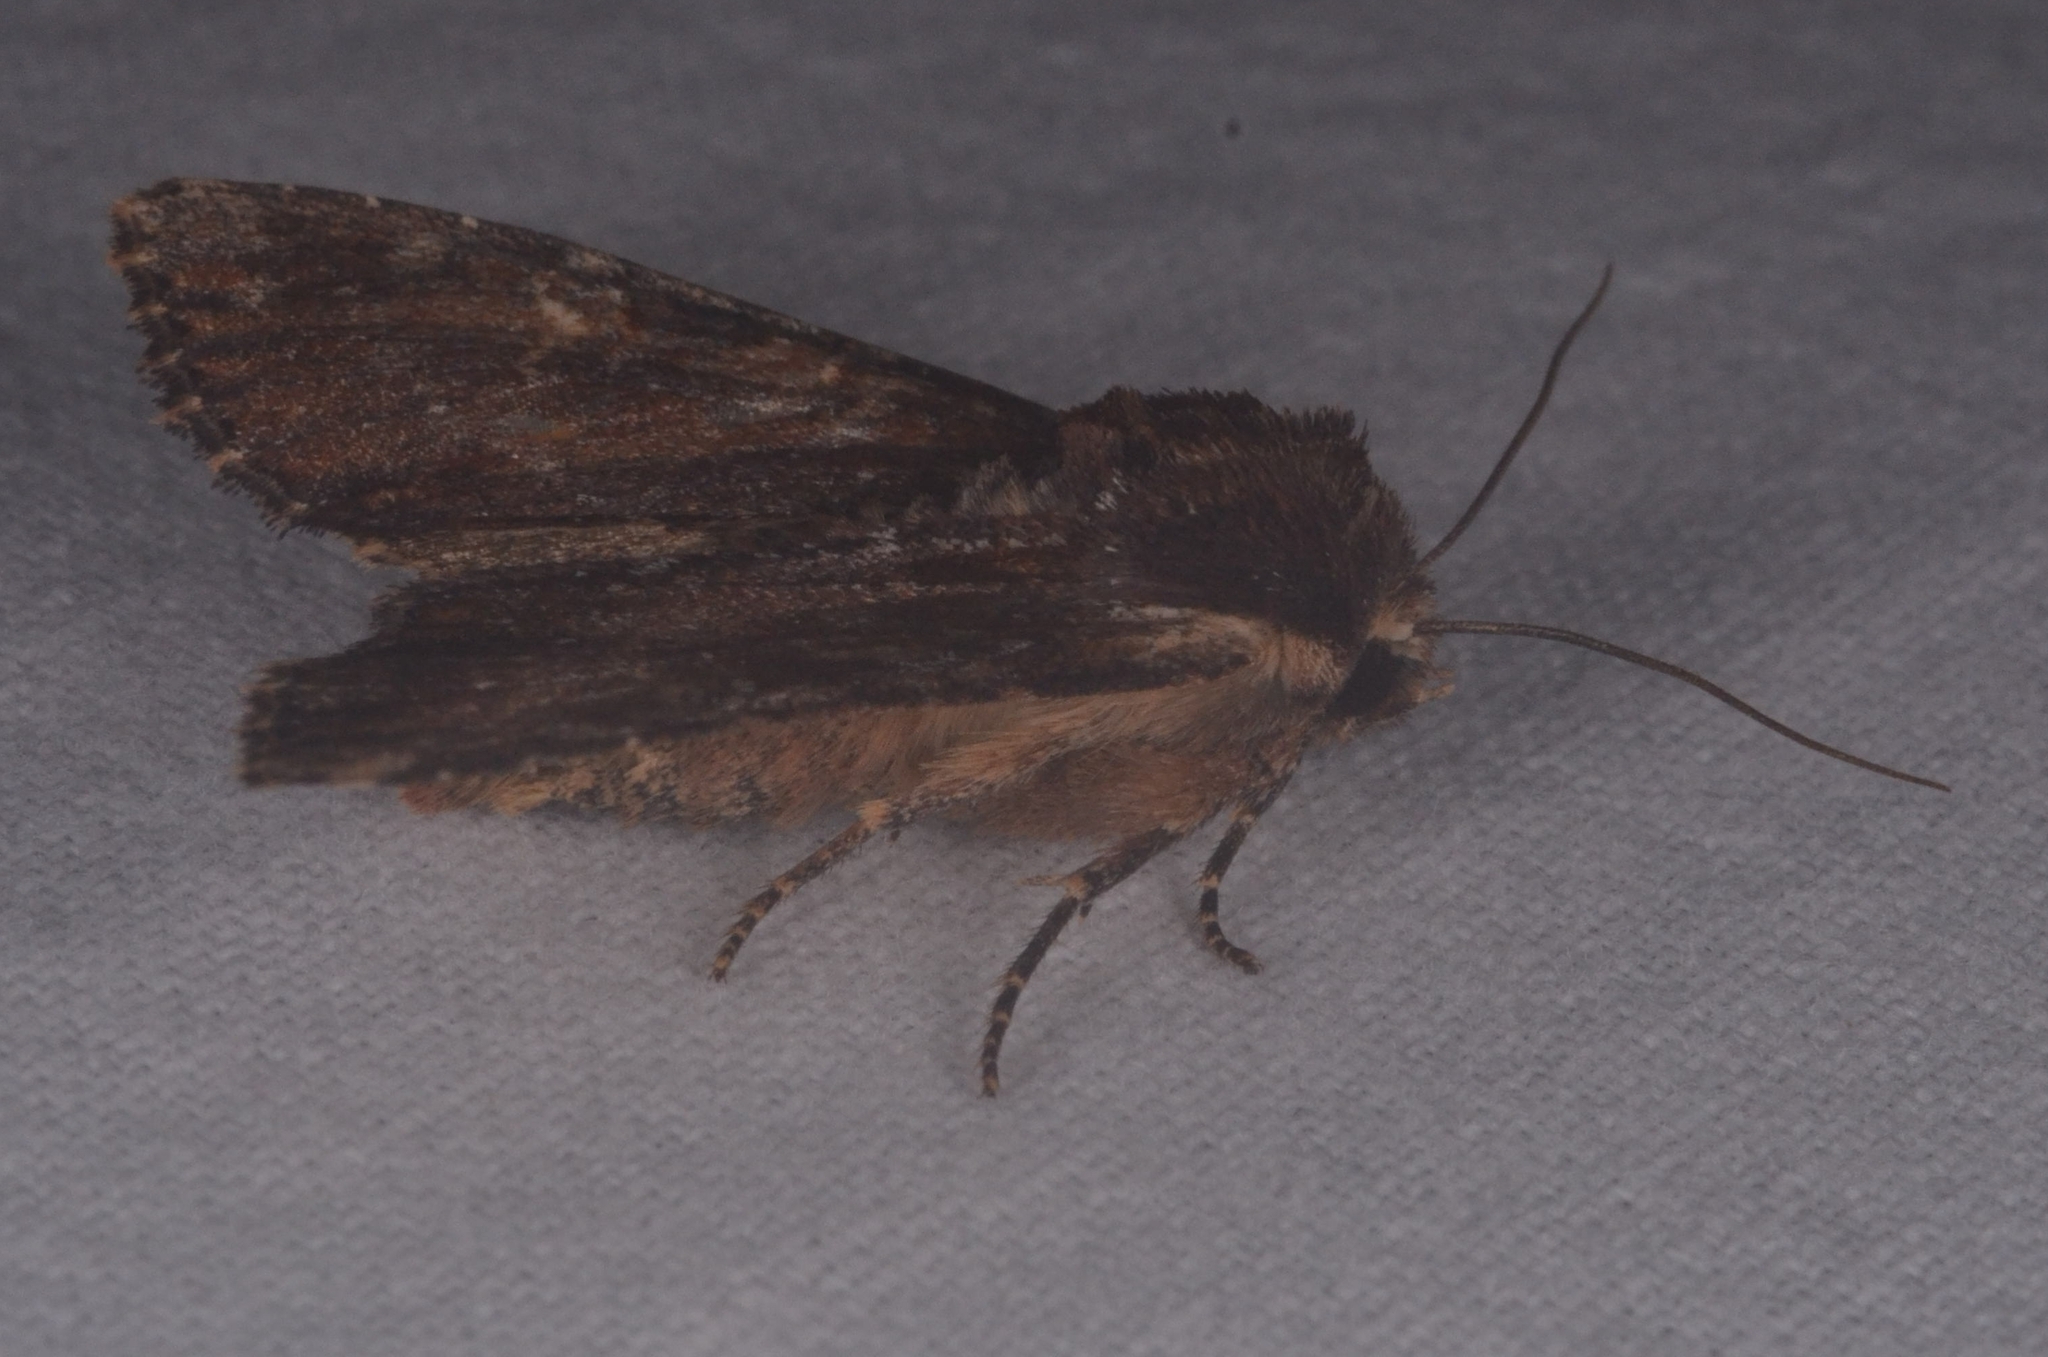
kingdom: Animalia
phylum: Arthropoda
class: Insecta
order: Lepidoptera
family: Noctuidae
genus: Apamea
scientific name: Apamea crenata
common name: Clouded-bordered brindle
